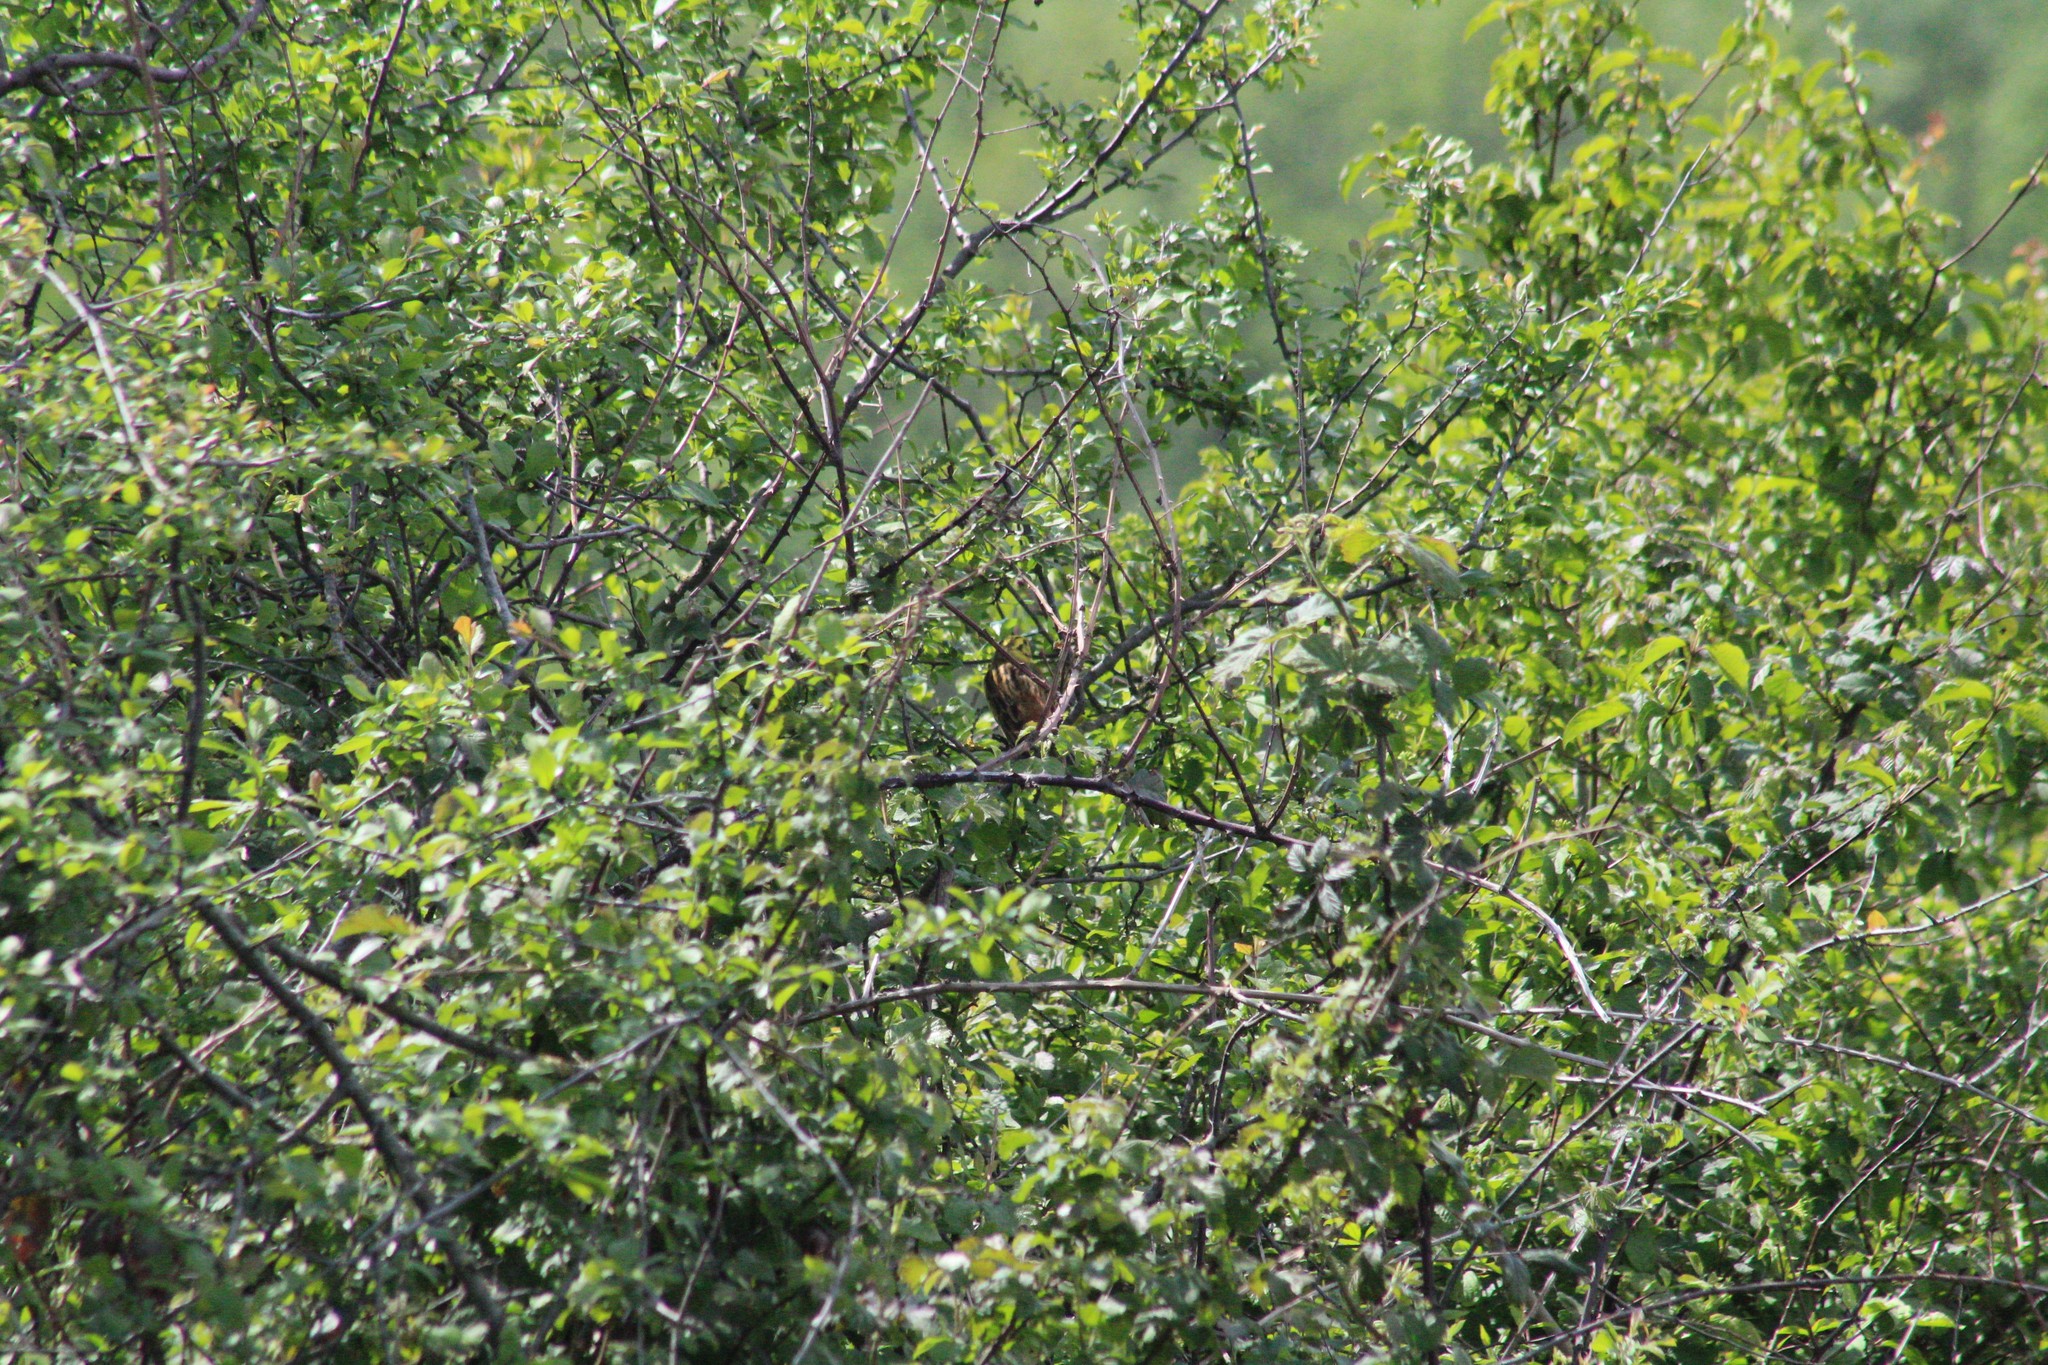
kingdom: Animalia
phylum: Chordata
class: Aves
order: Passeriformes
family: Emberizidae
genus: Emberiza
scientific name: Emberiza citrinella
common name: Yellowhammer
